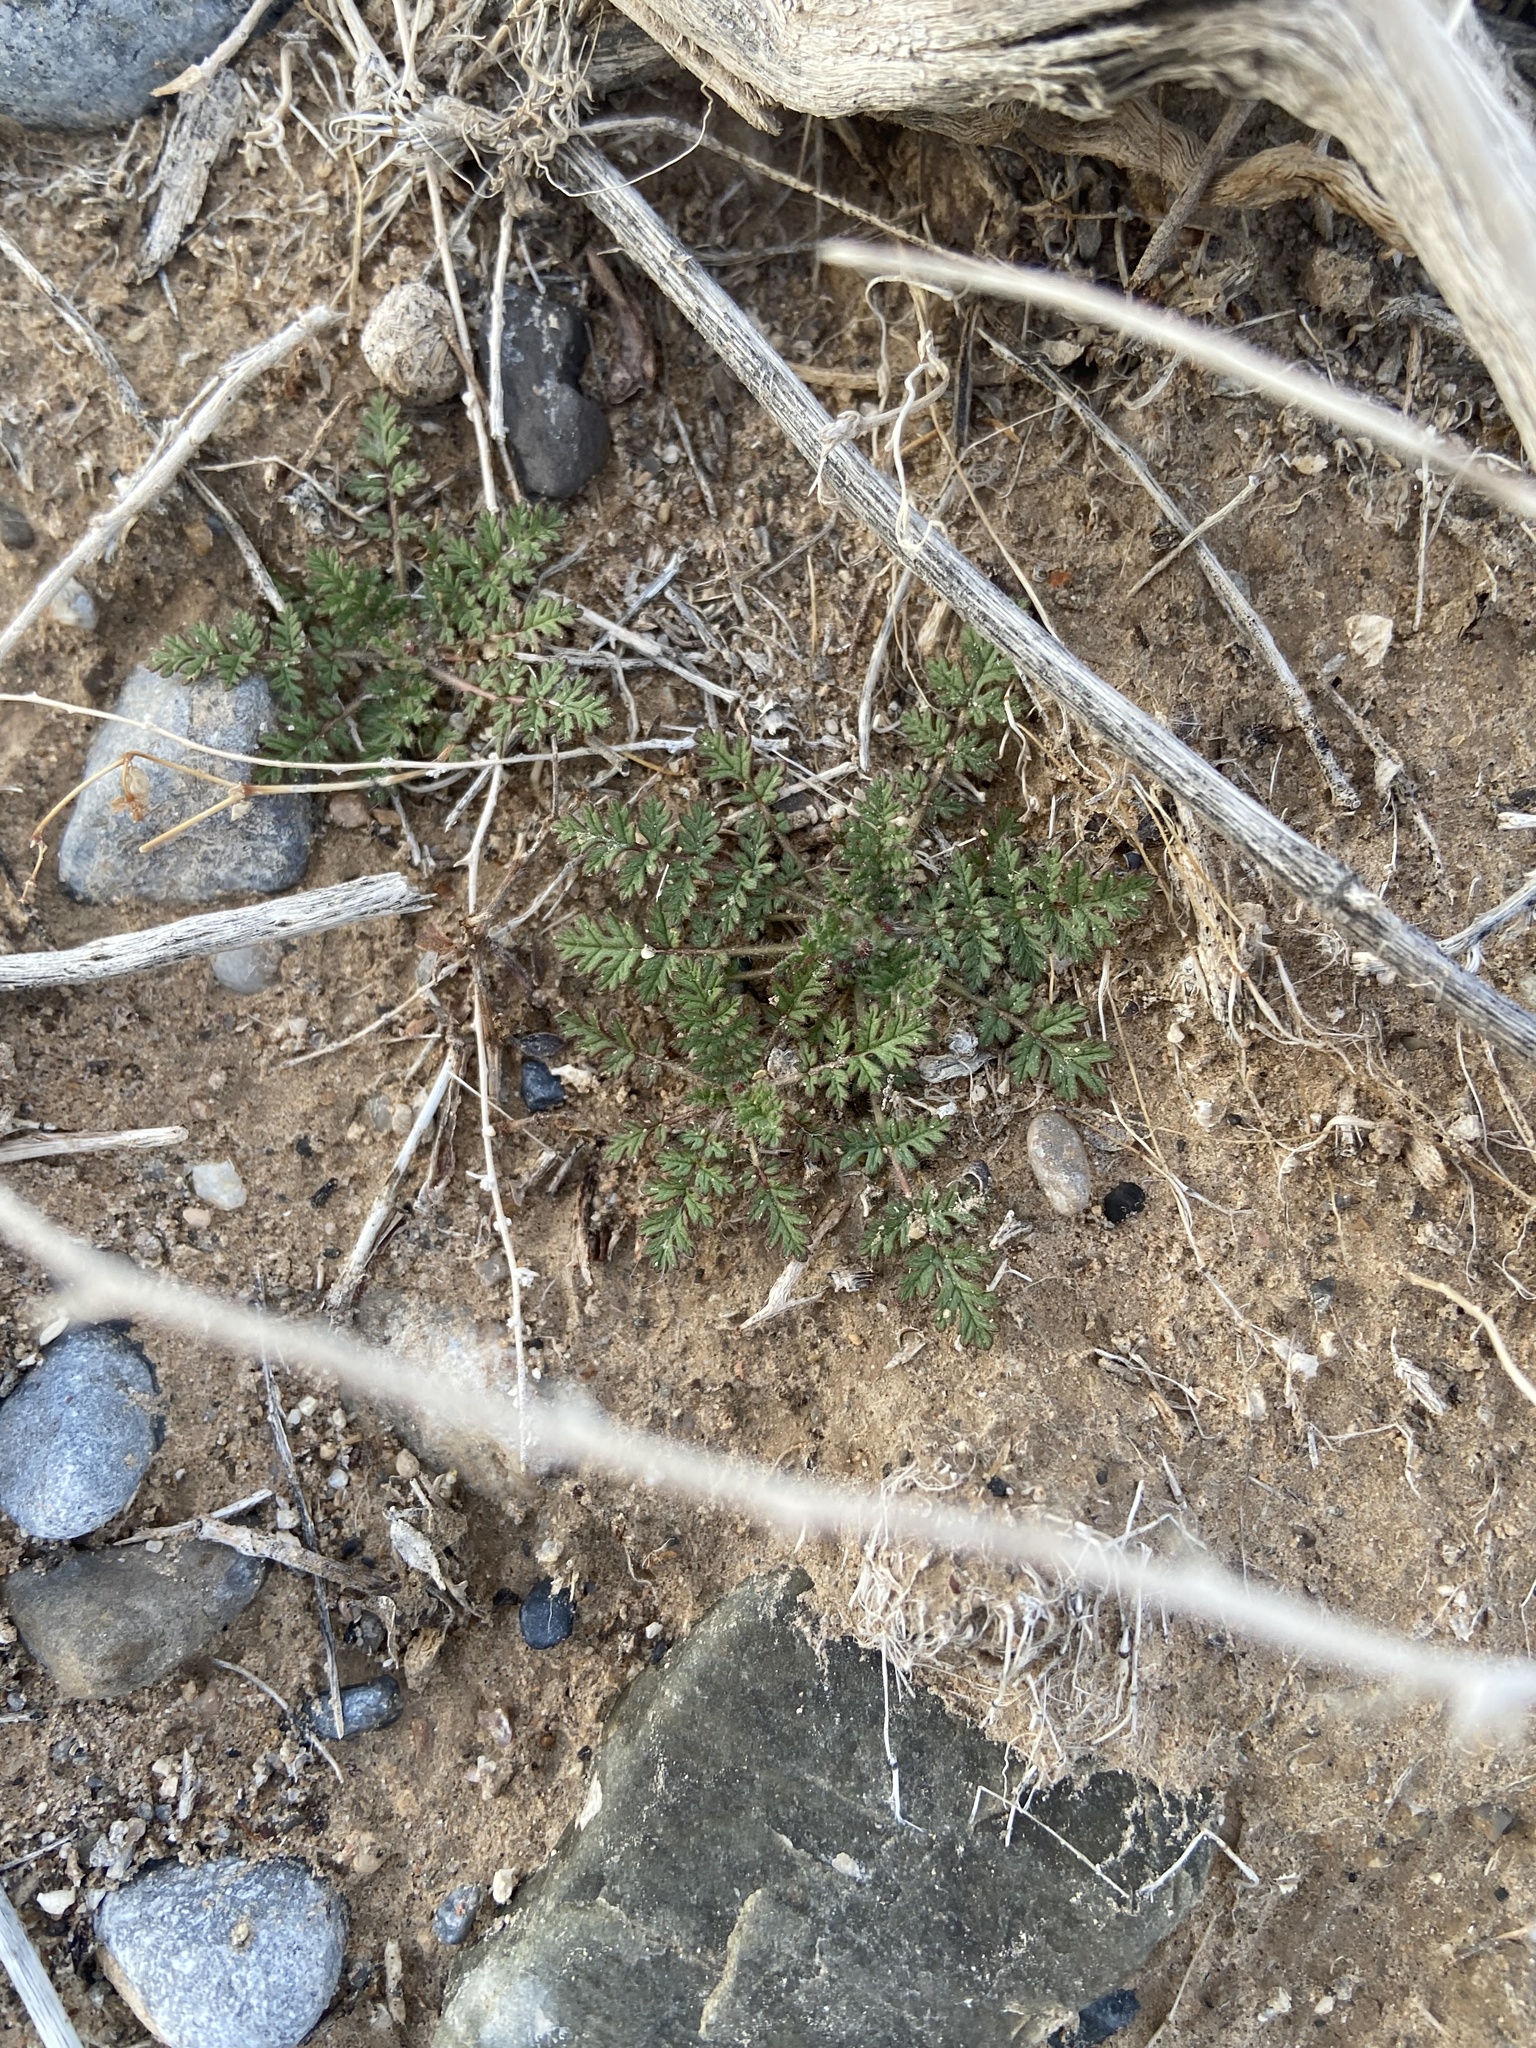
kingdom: Plantae
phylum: Tracheophyta
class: Magnoliopsida
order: Geraniales
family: Geraniaceae
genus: Erodium
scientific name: Erodium cicutarium
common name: Common stork's-bill
